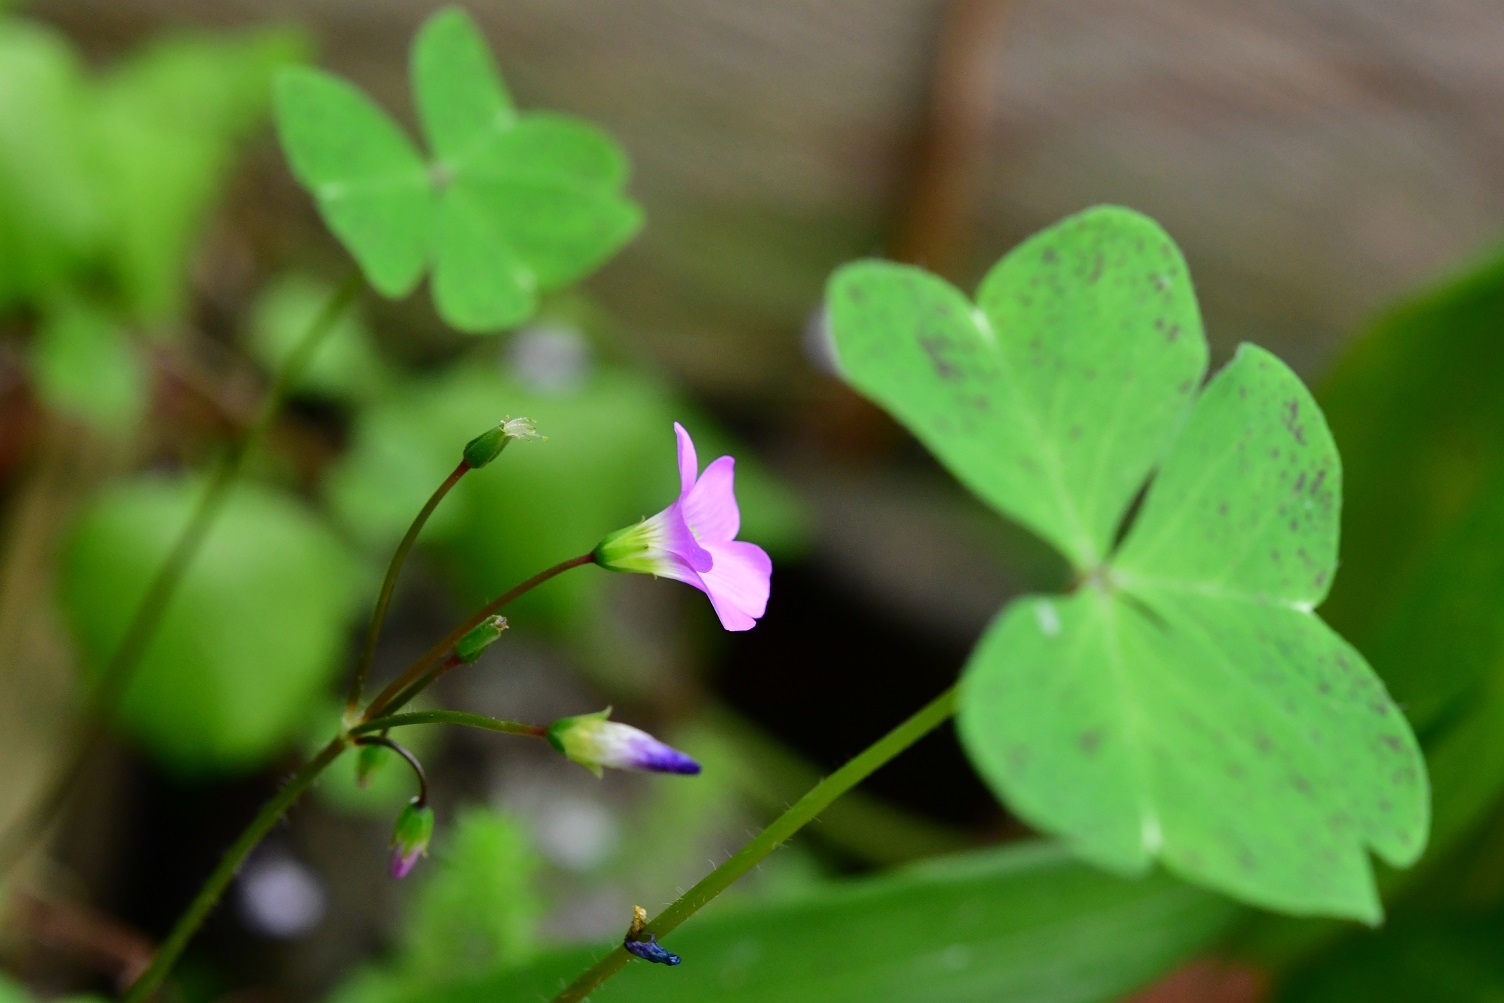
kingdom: Plantae
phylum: Tracheophyta
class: Magnoliopsida
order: Oxalidales
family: Oxalidaceae
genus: Oxalis
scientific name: Oxalis latifolia
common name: Garden pink-sorrel
